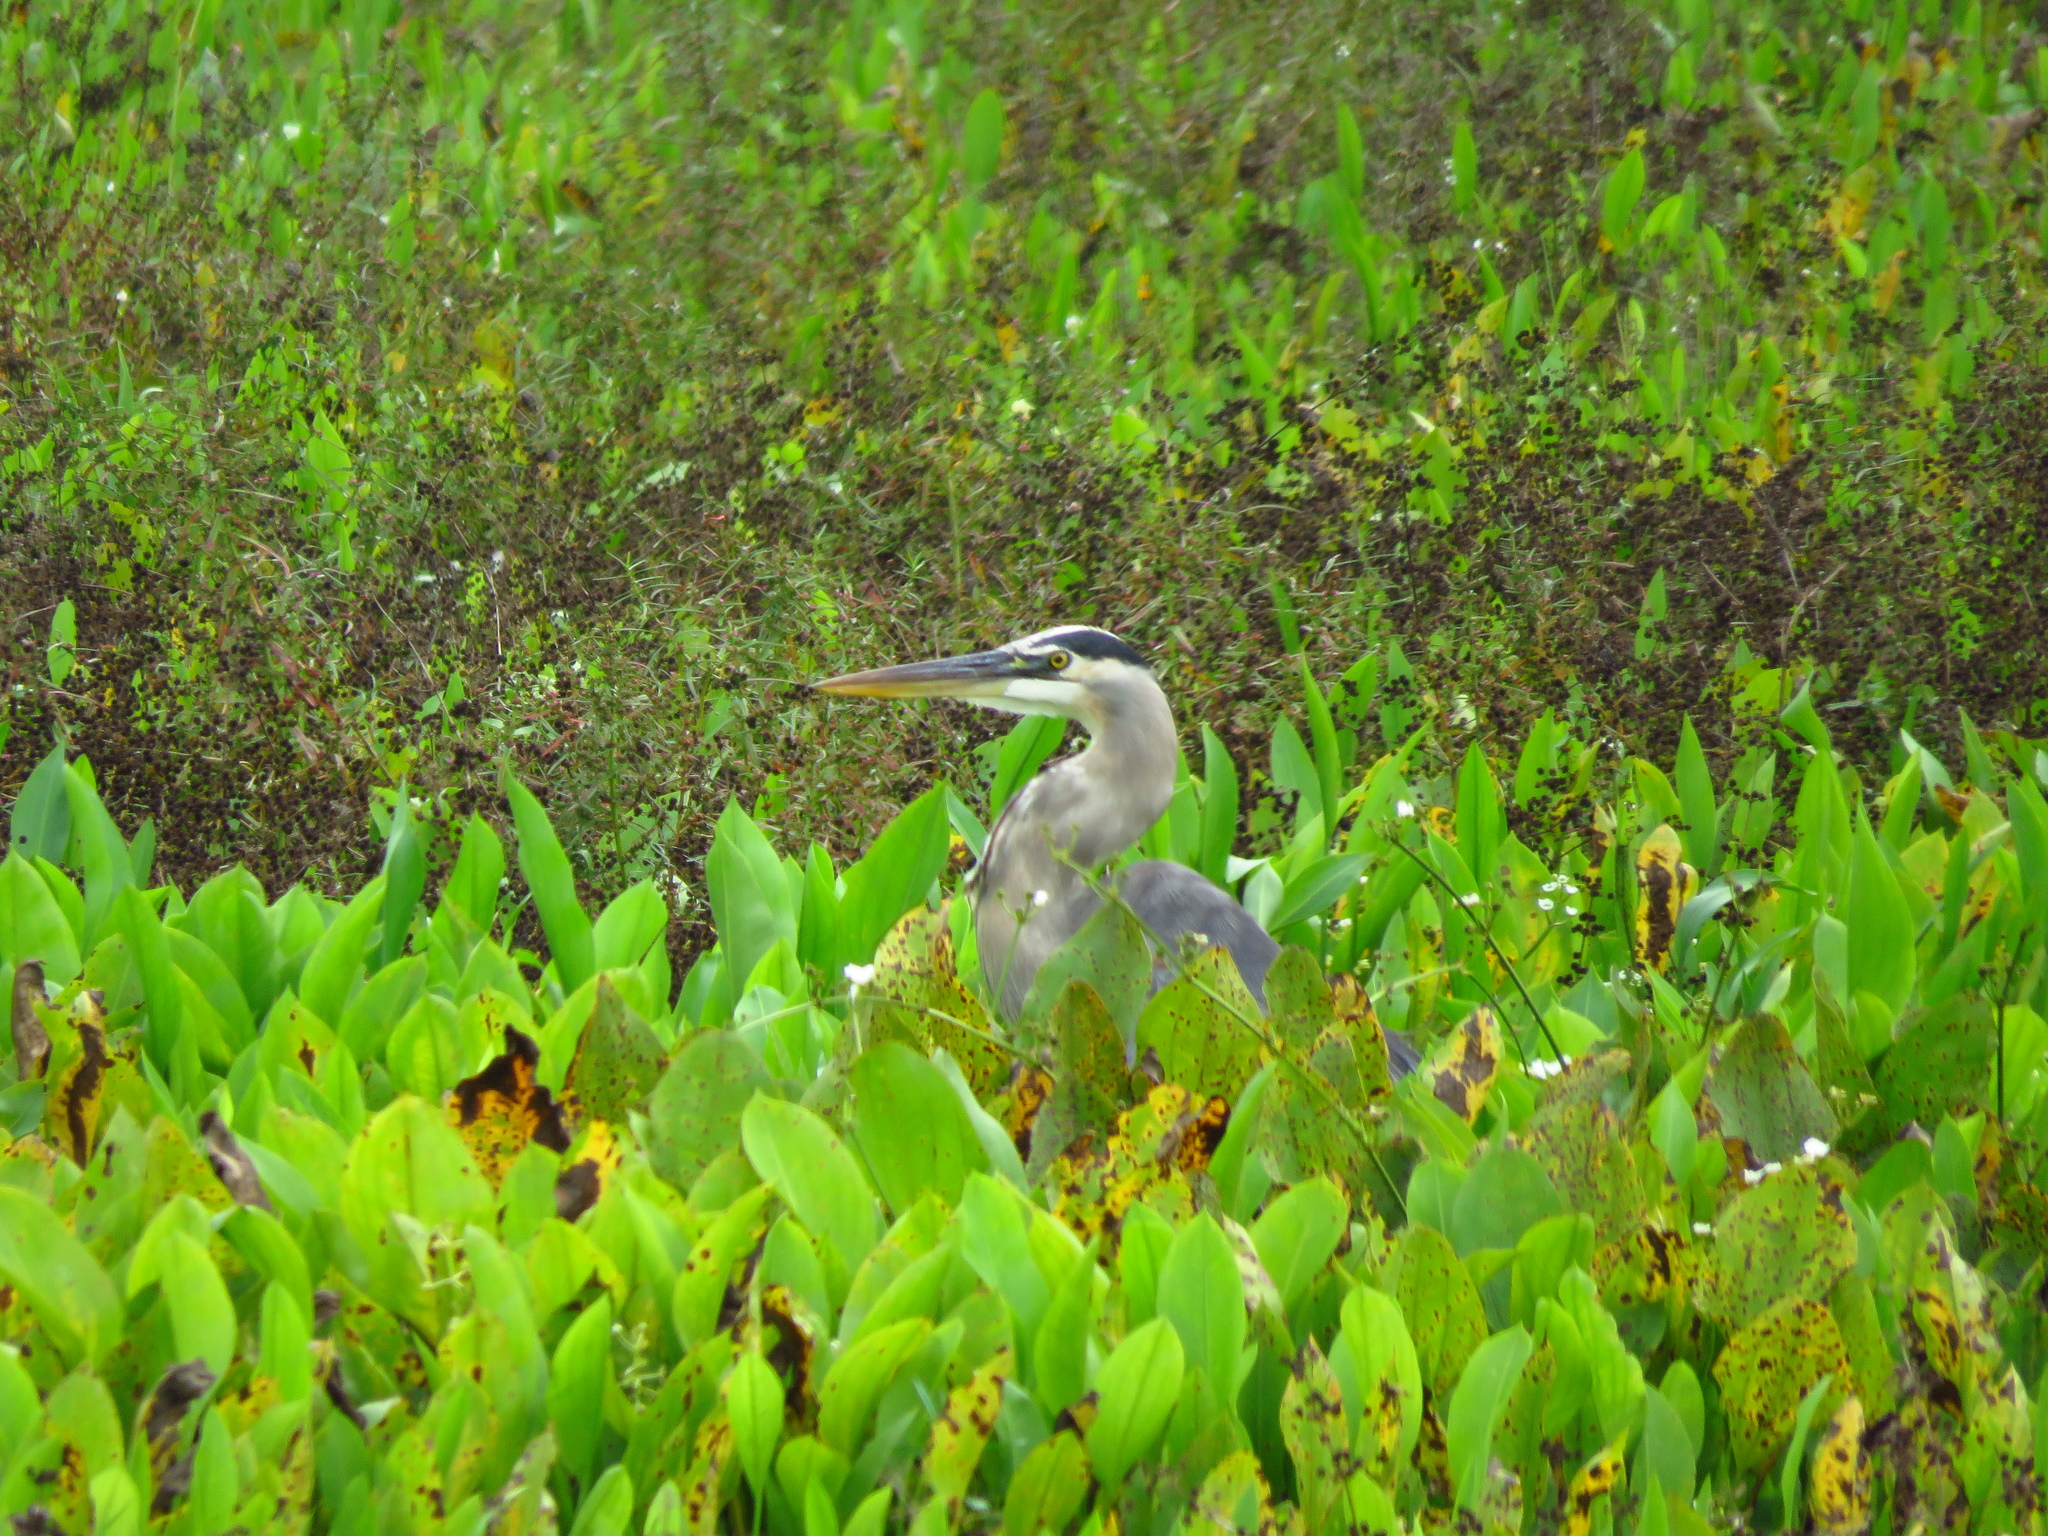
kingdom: Animalia
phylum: Chordata
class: Aves
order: Pelecaniformes
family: Ardeidae
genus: Ardea
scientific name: Ardea herodias
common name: Great blue heron
